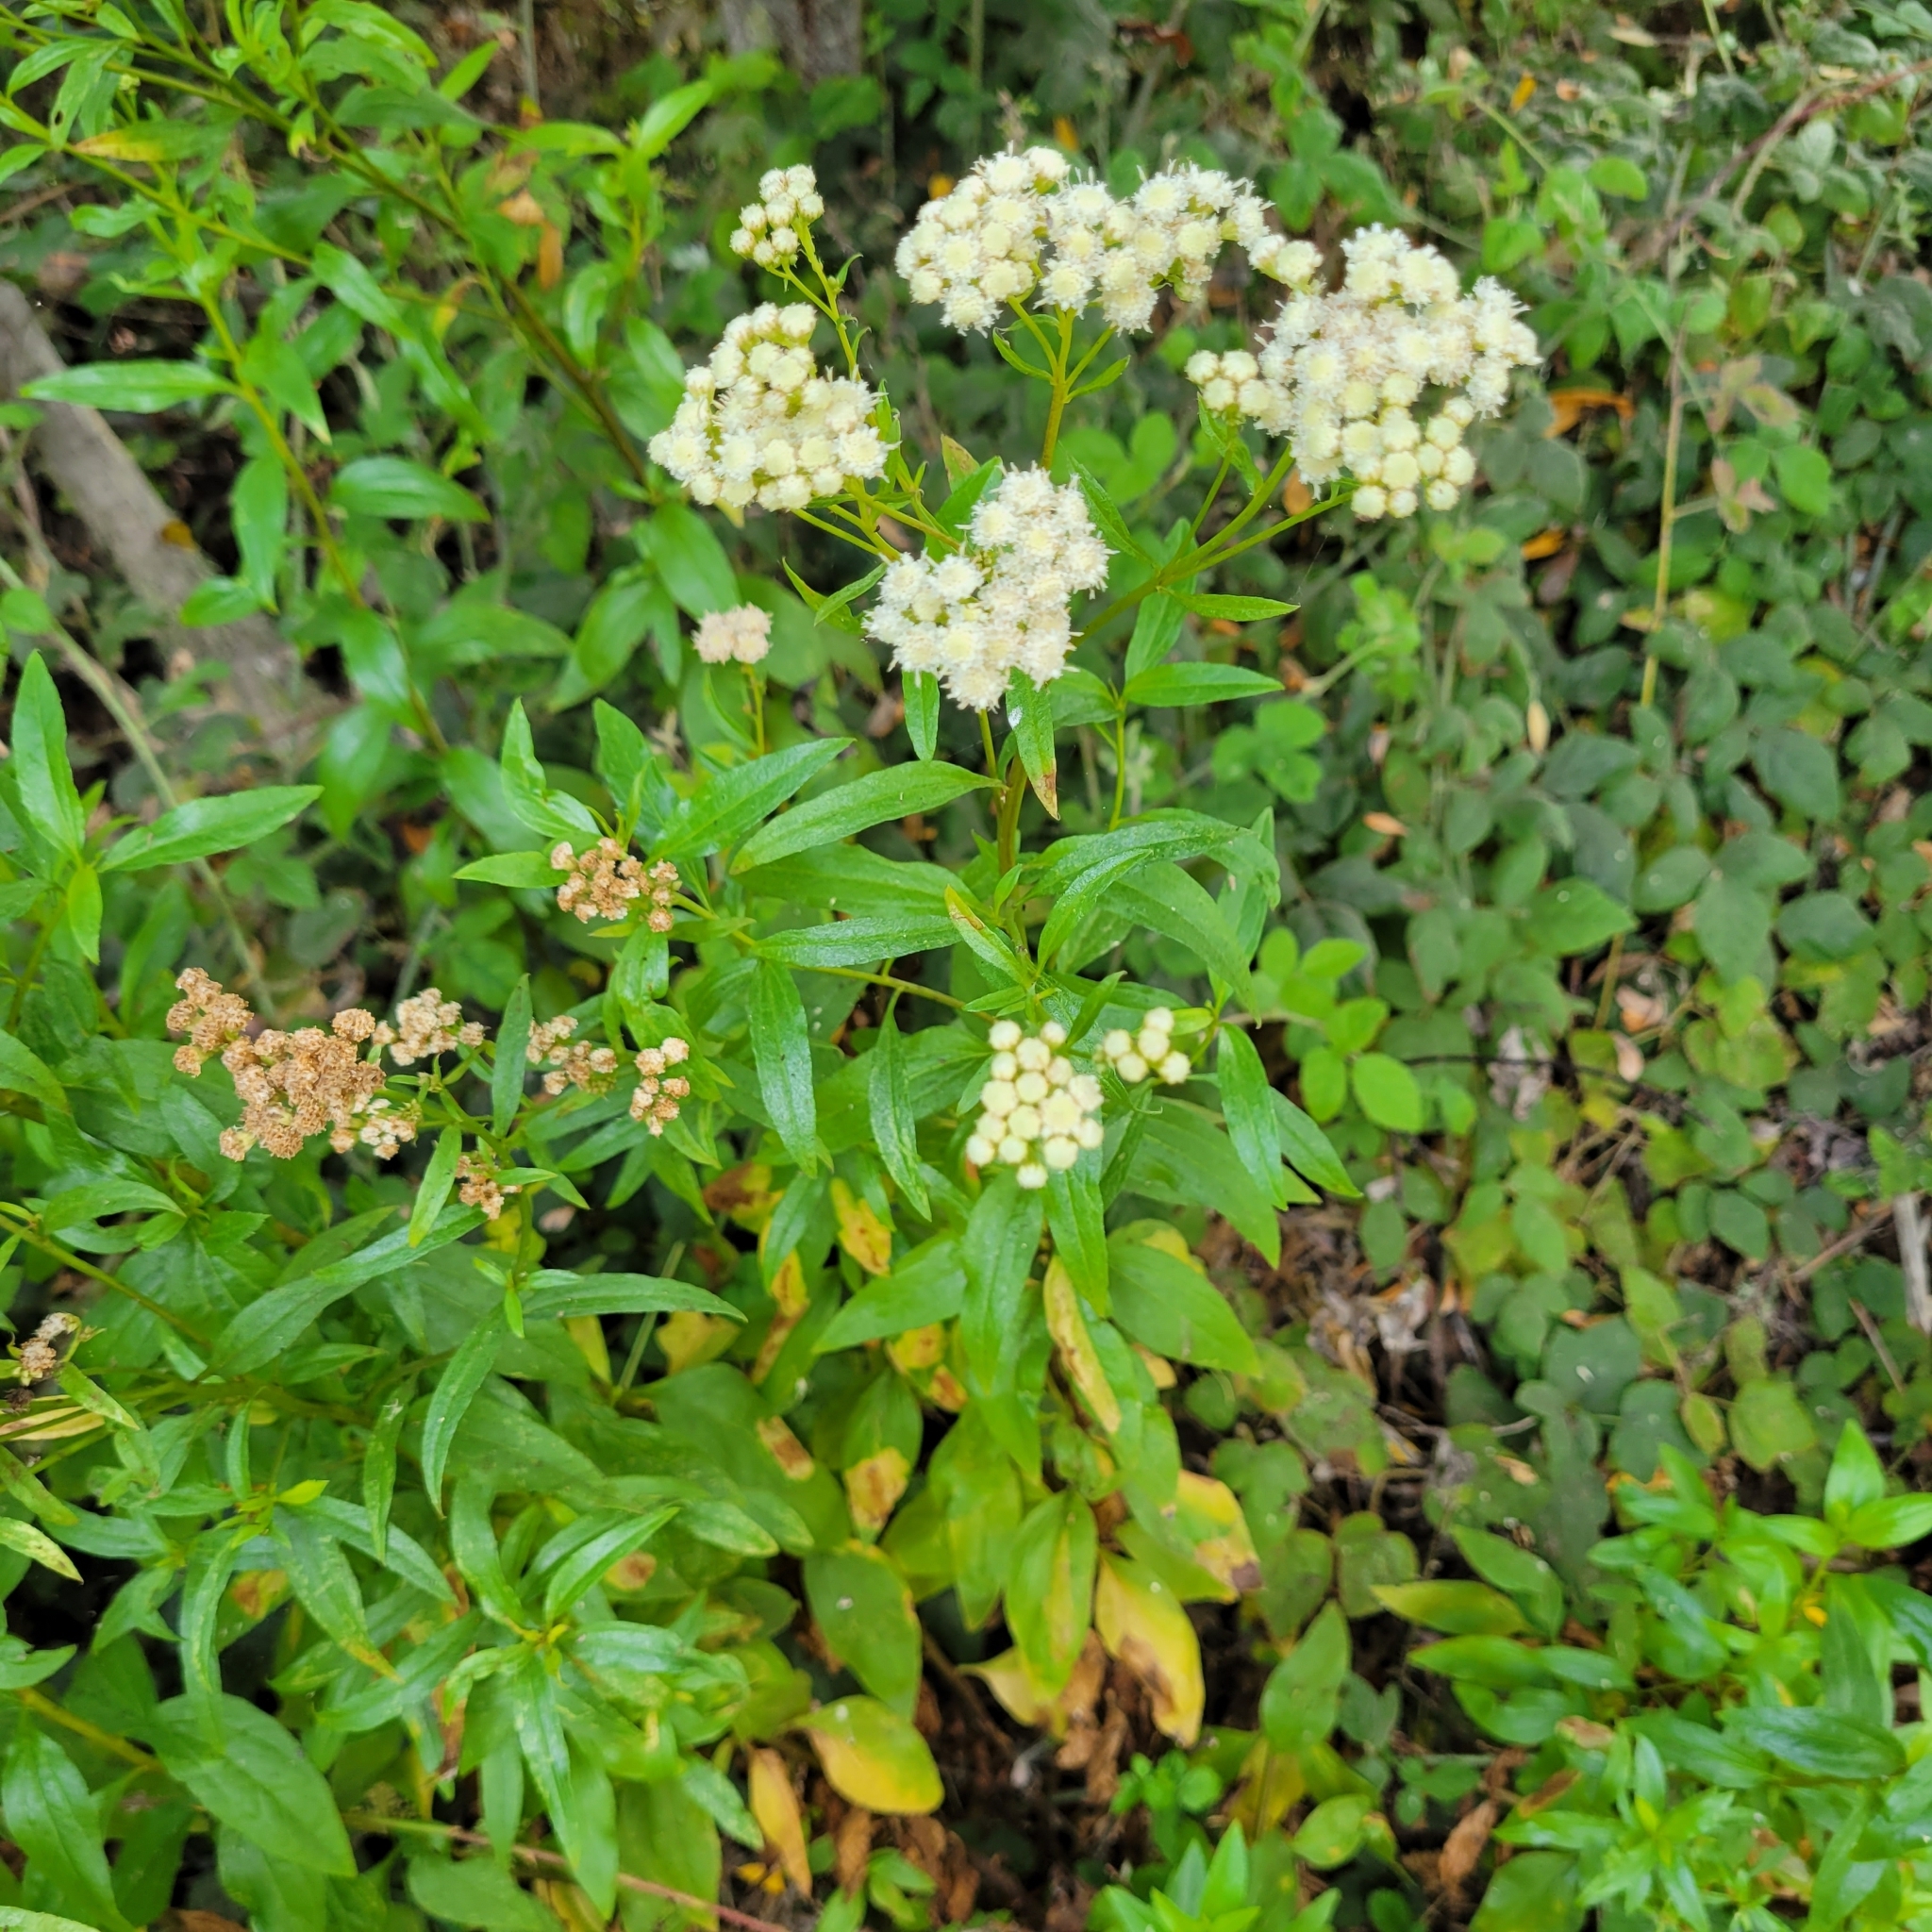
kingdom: Plantae
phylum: Tracheophyta
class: Magnoliopsida
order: Asterales
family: Asteraceae
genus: Baccharis
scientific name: Baccharis glutinosa
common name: Saltmarsh baccharis
